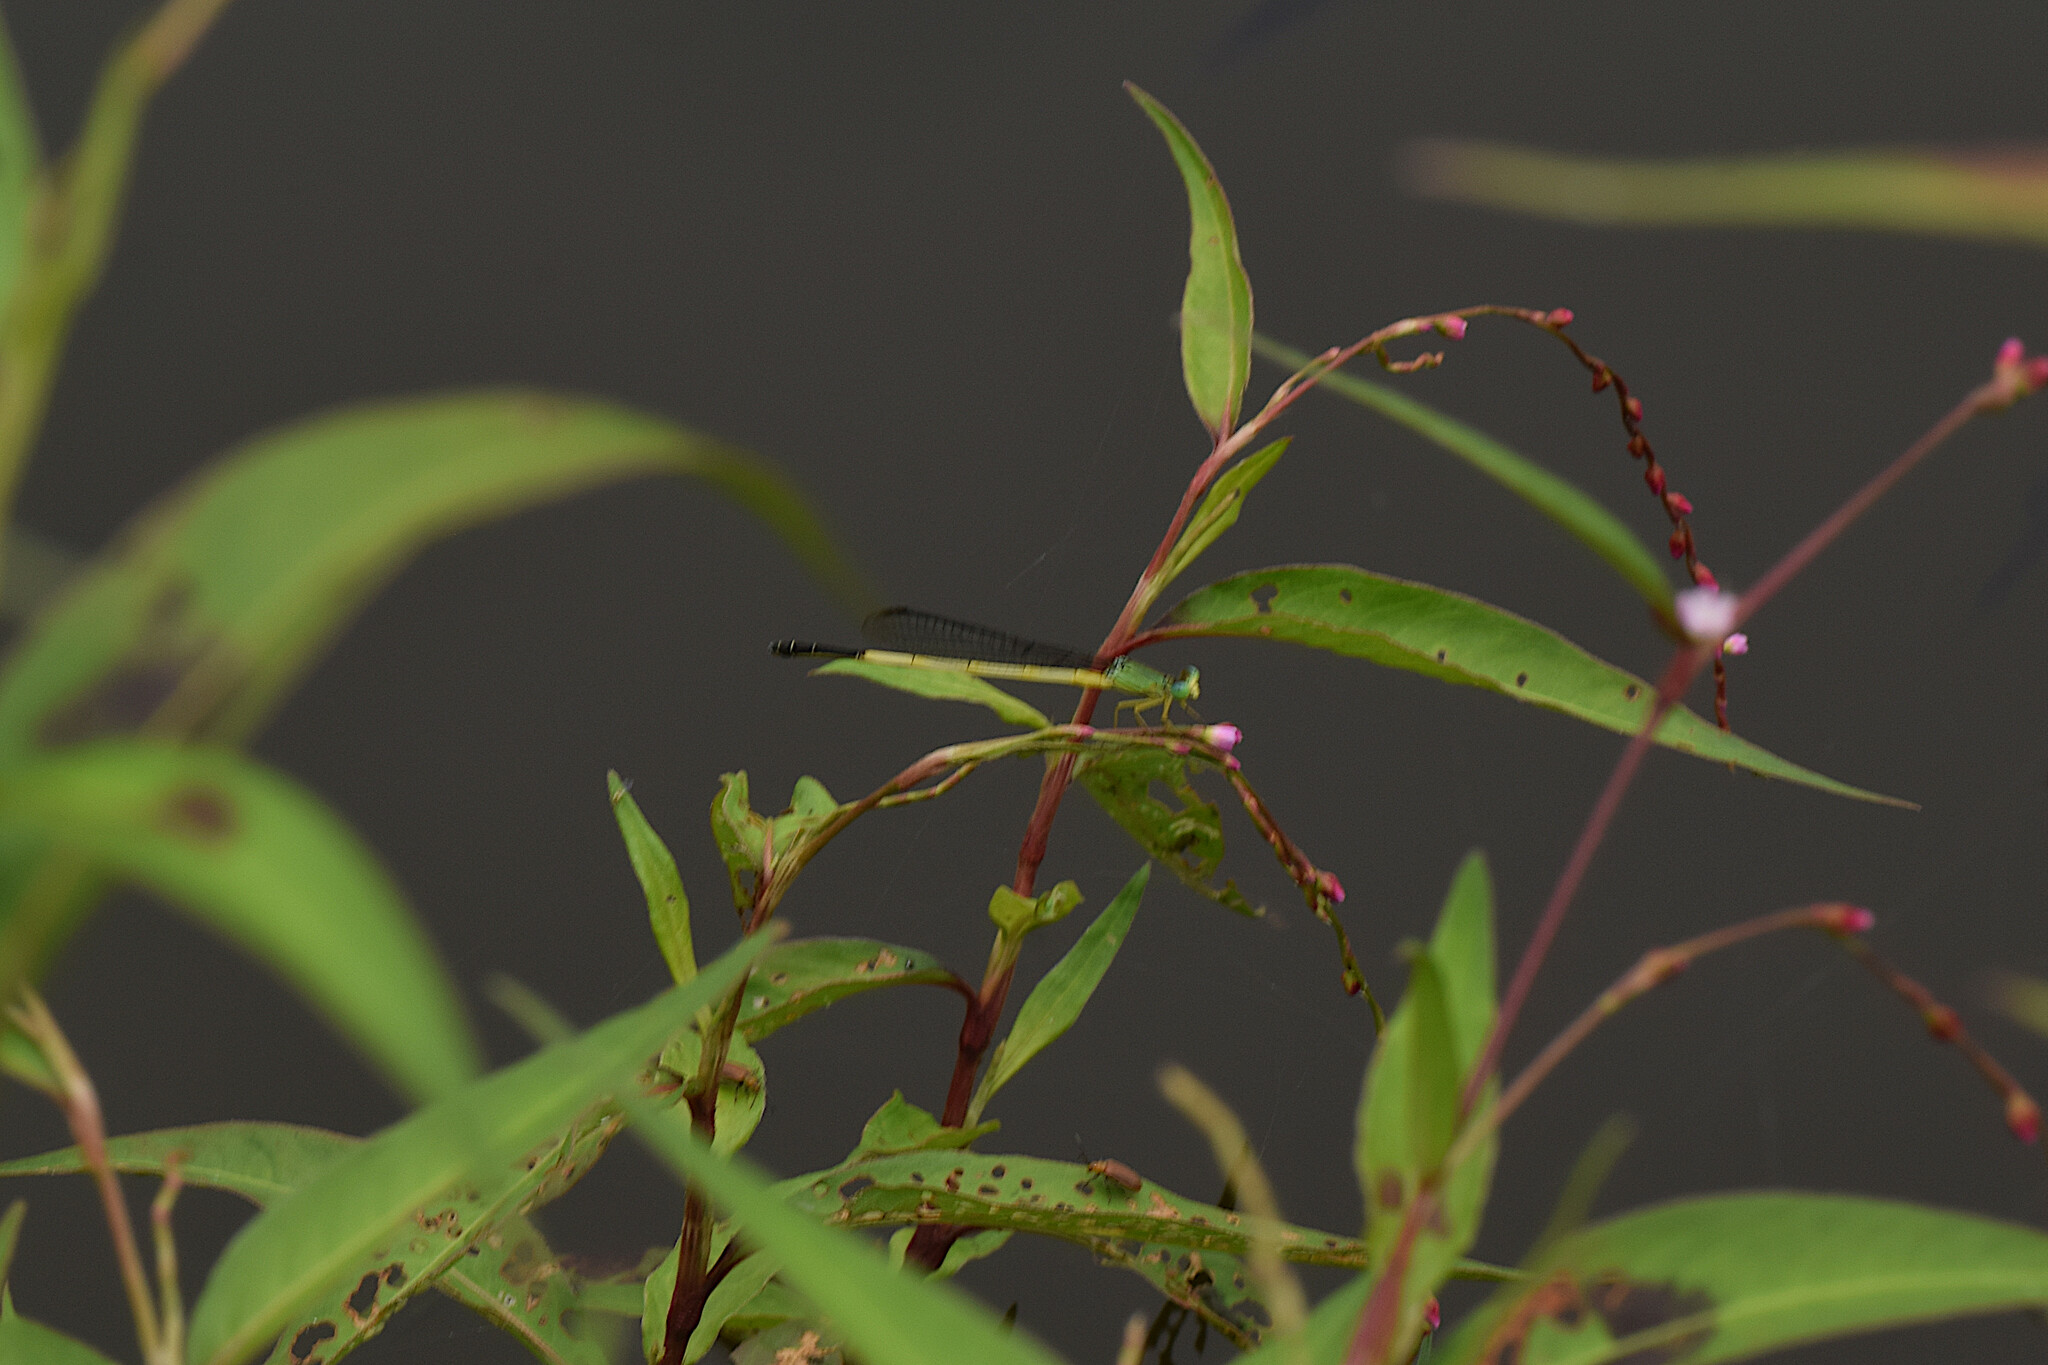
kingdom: Animalia
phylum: Arthropoda
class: Insecta
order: Odonata
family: Coenagrionidae
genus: Ceriagrion
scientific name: Ceriagrion fallax
